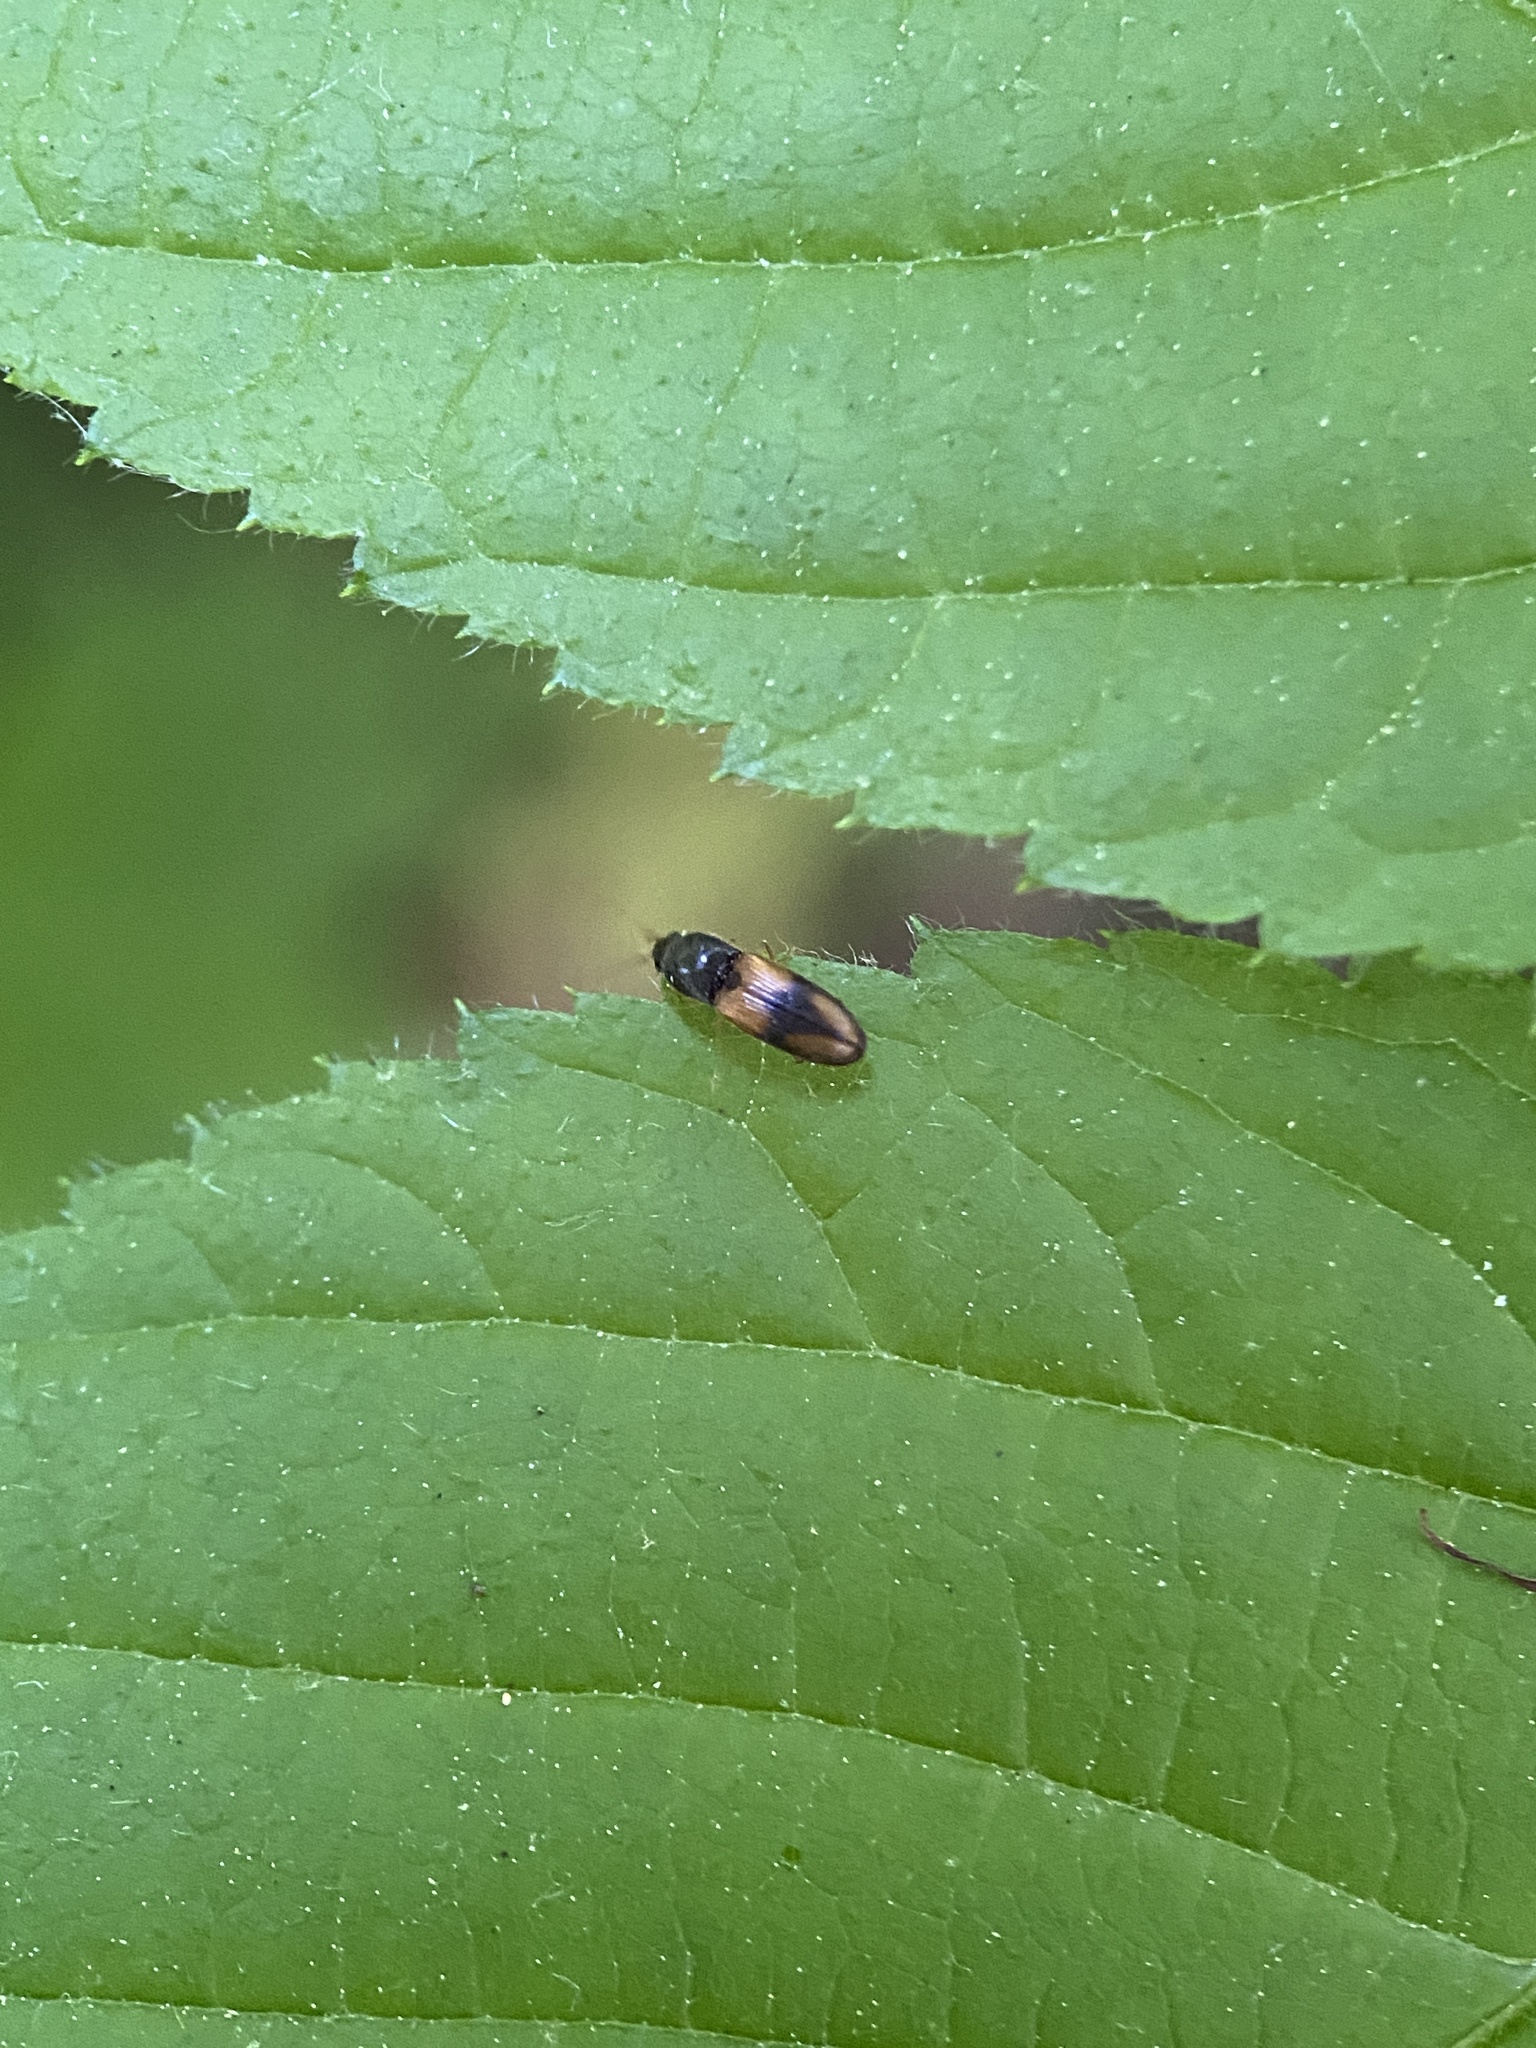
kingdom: Animalia
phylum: Arthropoda
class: Insecta
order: Coleoptera
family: Elateridae
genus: Horistonotus
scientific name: Horistonotus curiatus
